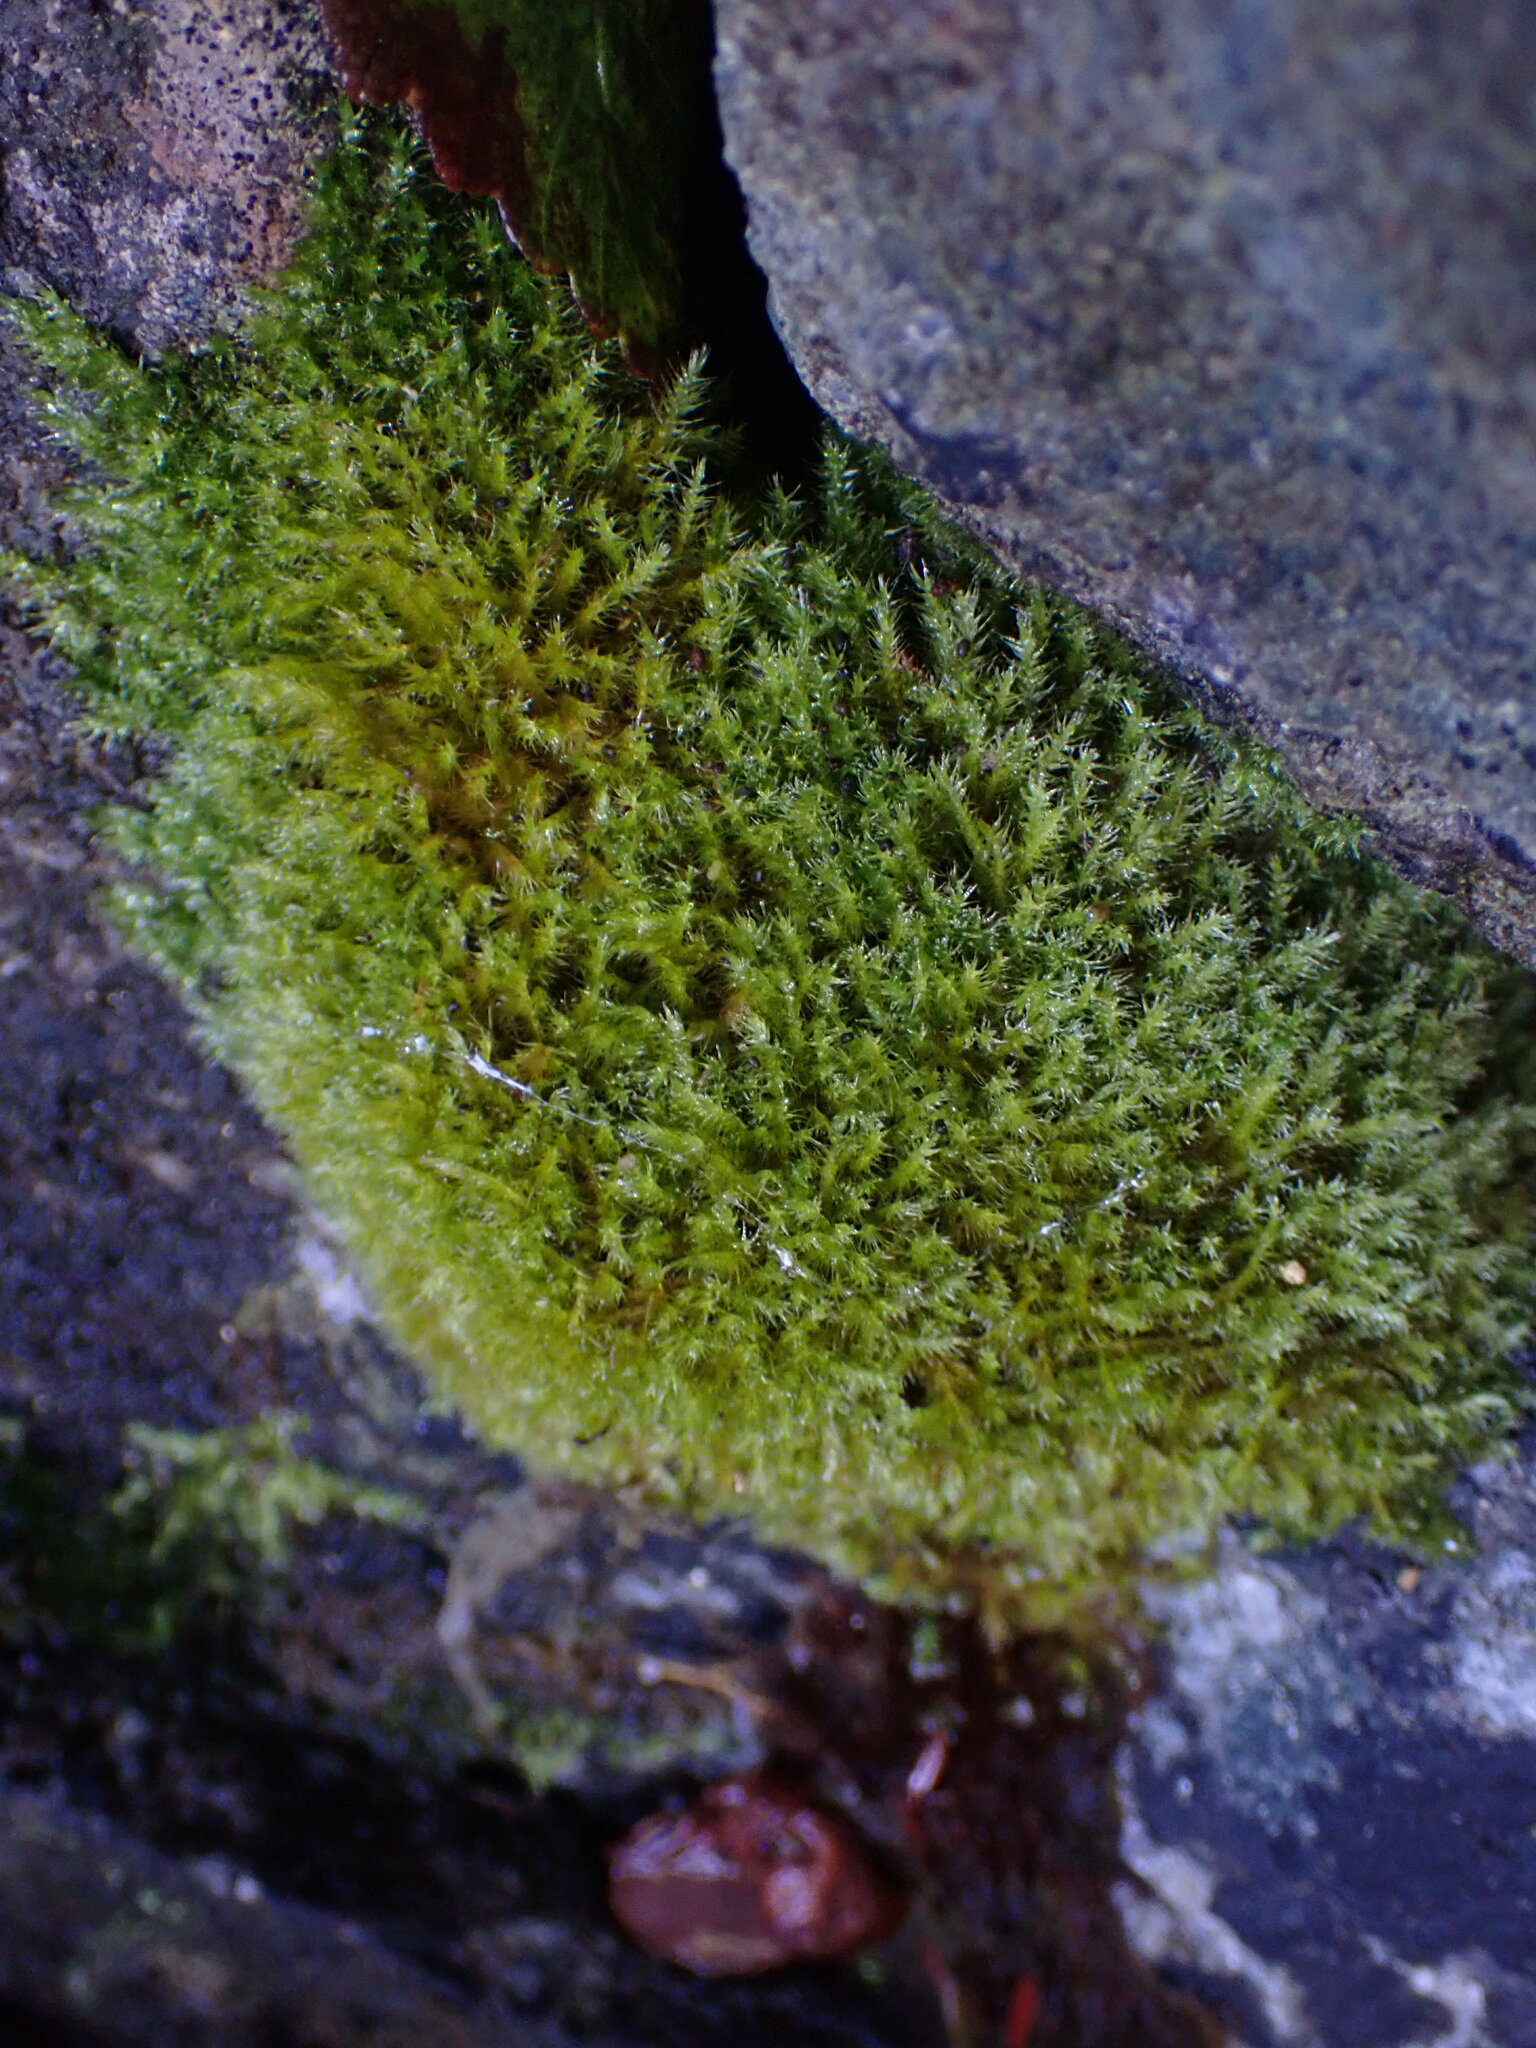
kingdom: Plantae
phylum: Bryophyta
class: Bryopsida
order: Hypnales
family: Pylaisiaceae
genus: Aquilonium
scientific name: Aquilonium adscendens
